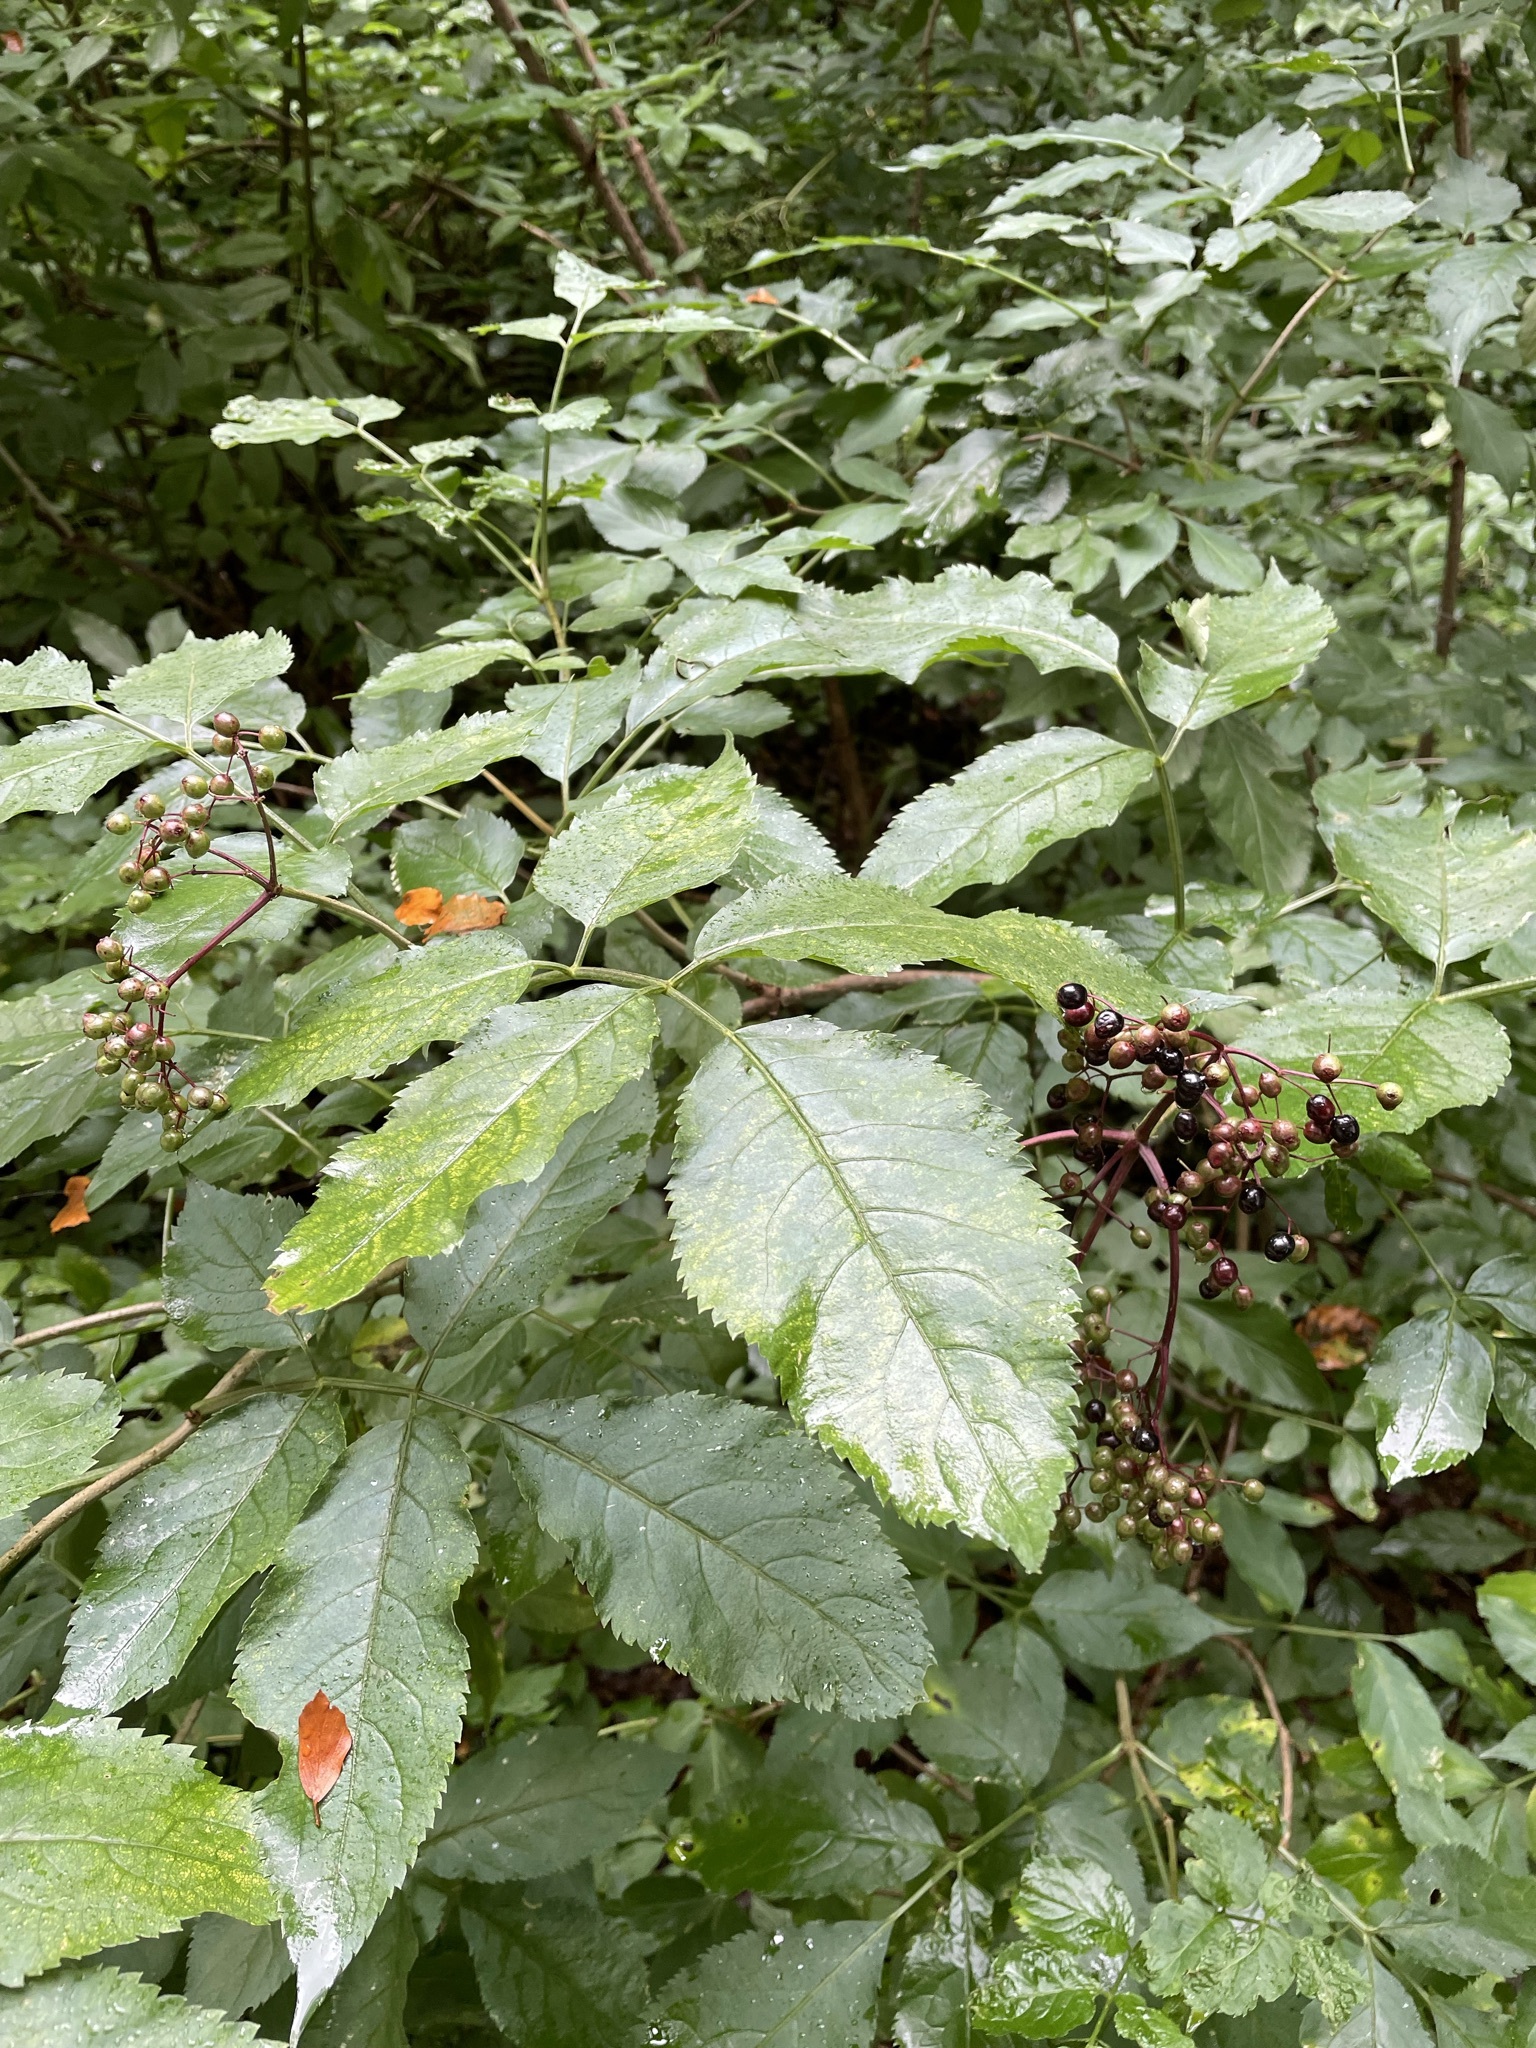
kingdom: Plantae
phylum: Tracheophyta
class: Magnoliopsida
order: Dipsacales
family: Viburnaceae
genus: Sambucus
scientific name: Sambucus nigra
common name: Elder
